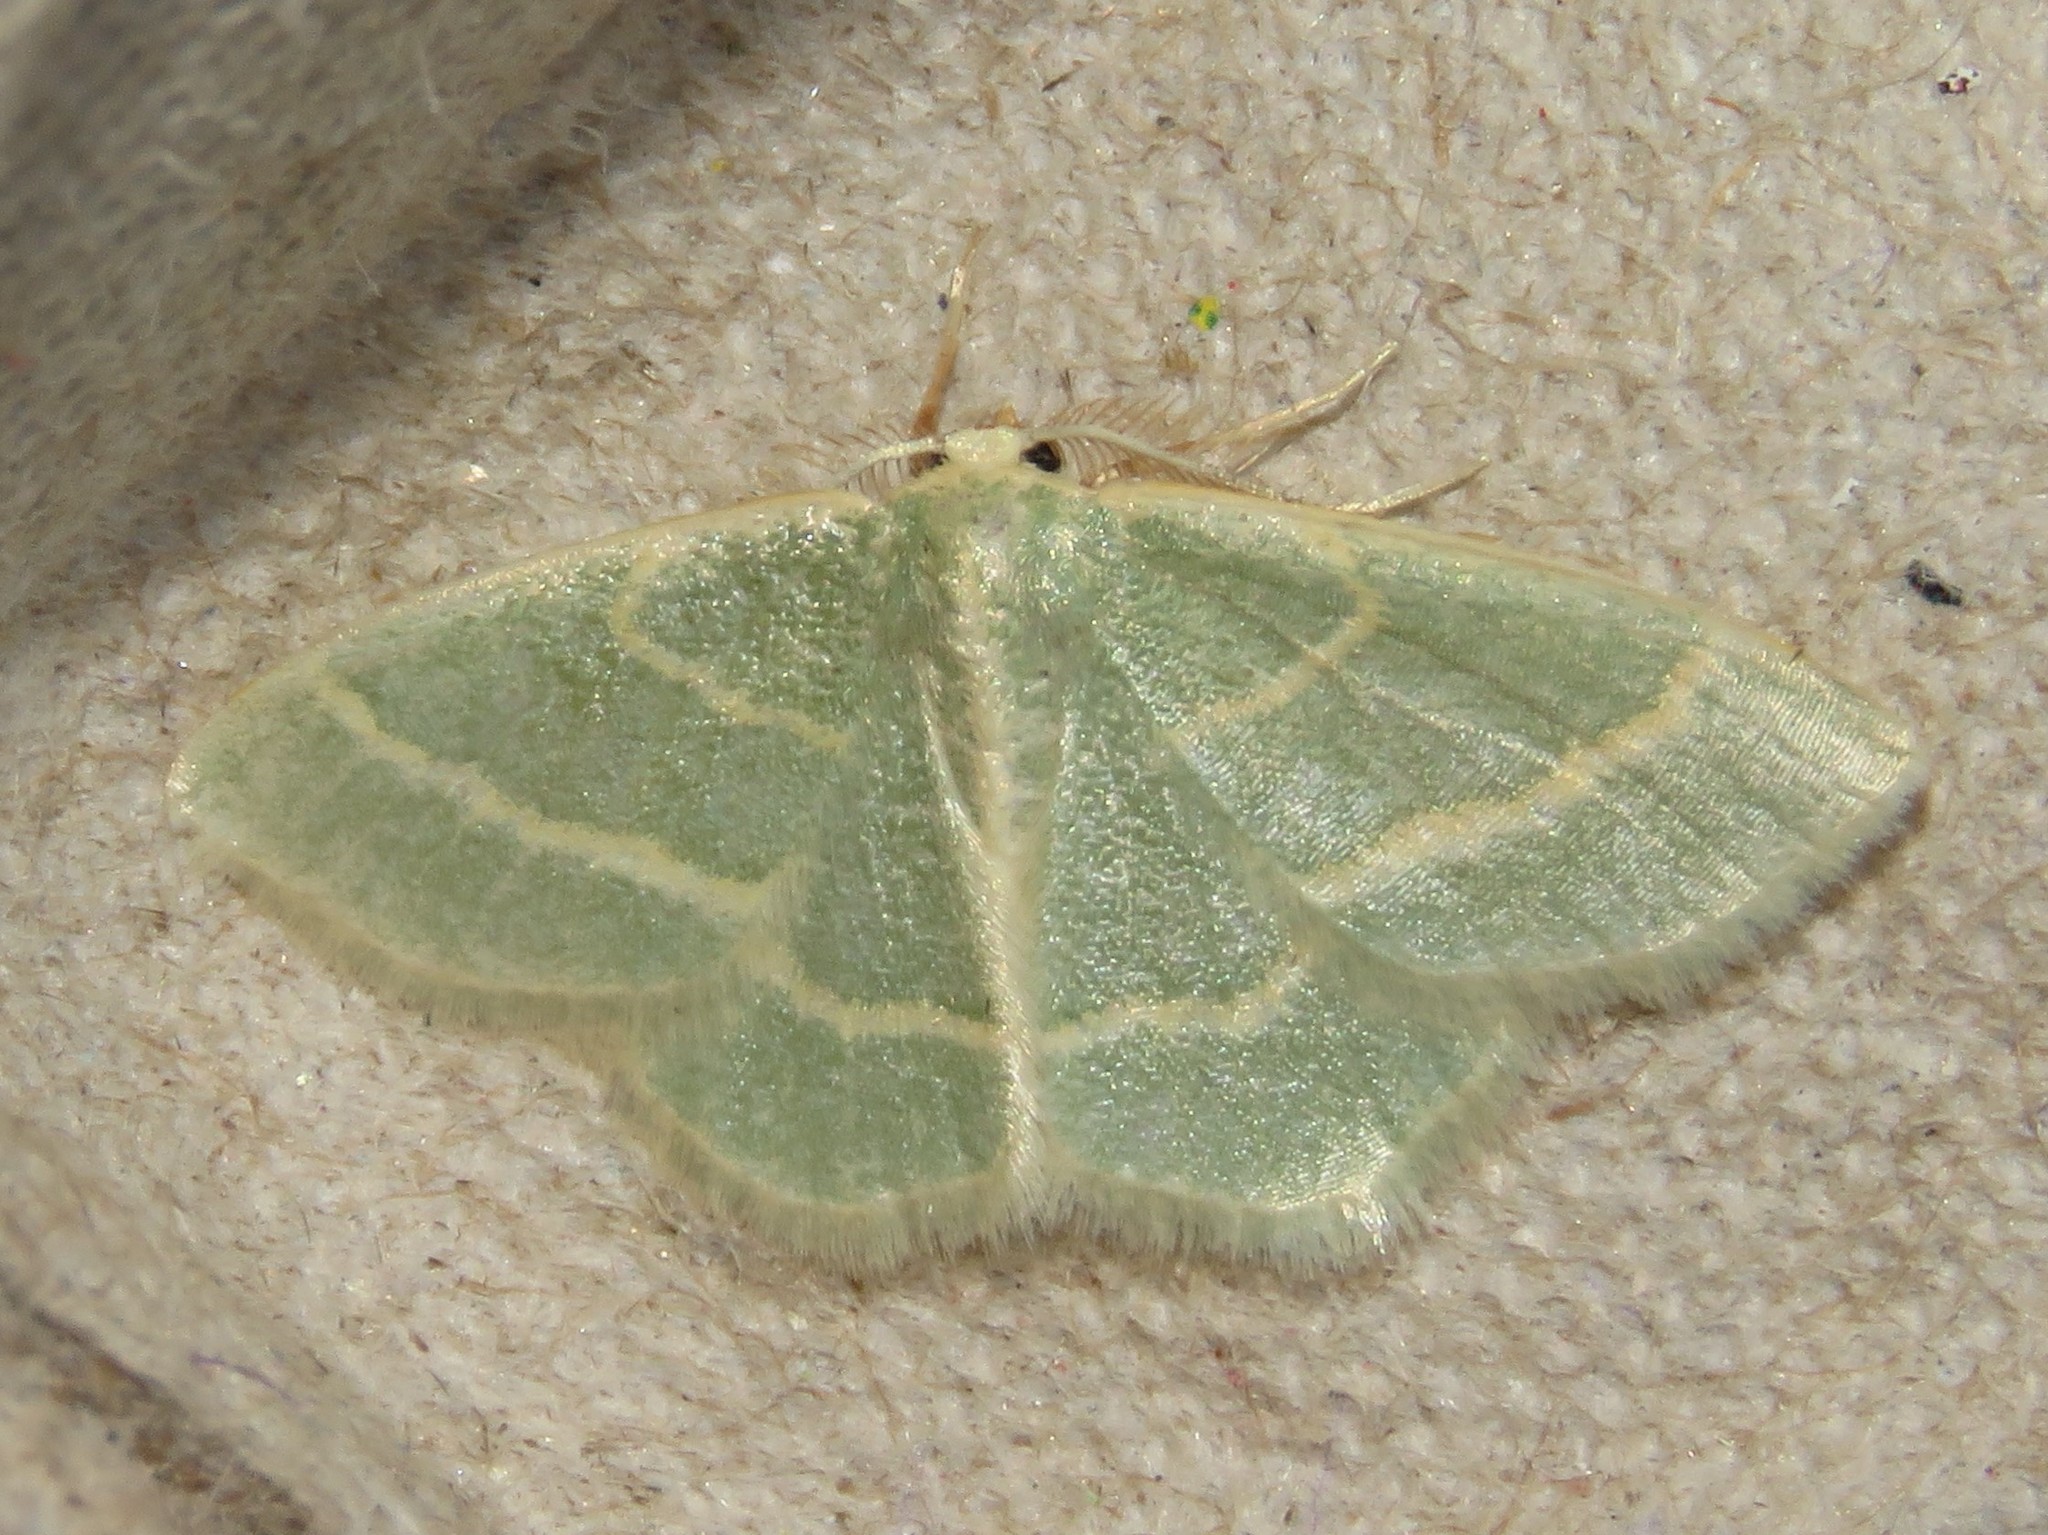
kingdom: Animalia
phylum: Arthropoda
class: Insecta
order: Lepidoptera
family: Geometridae
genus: Chlorochlamys
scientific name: Chlorochlamys chloroleucaria
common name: Blackberry looper
